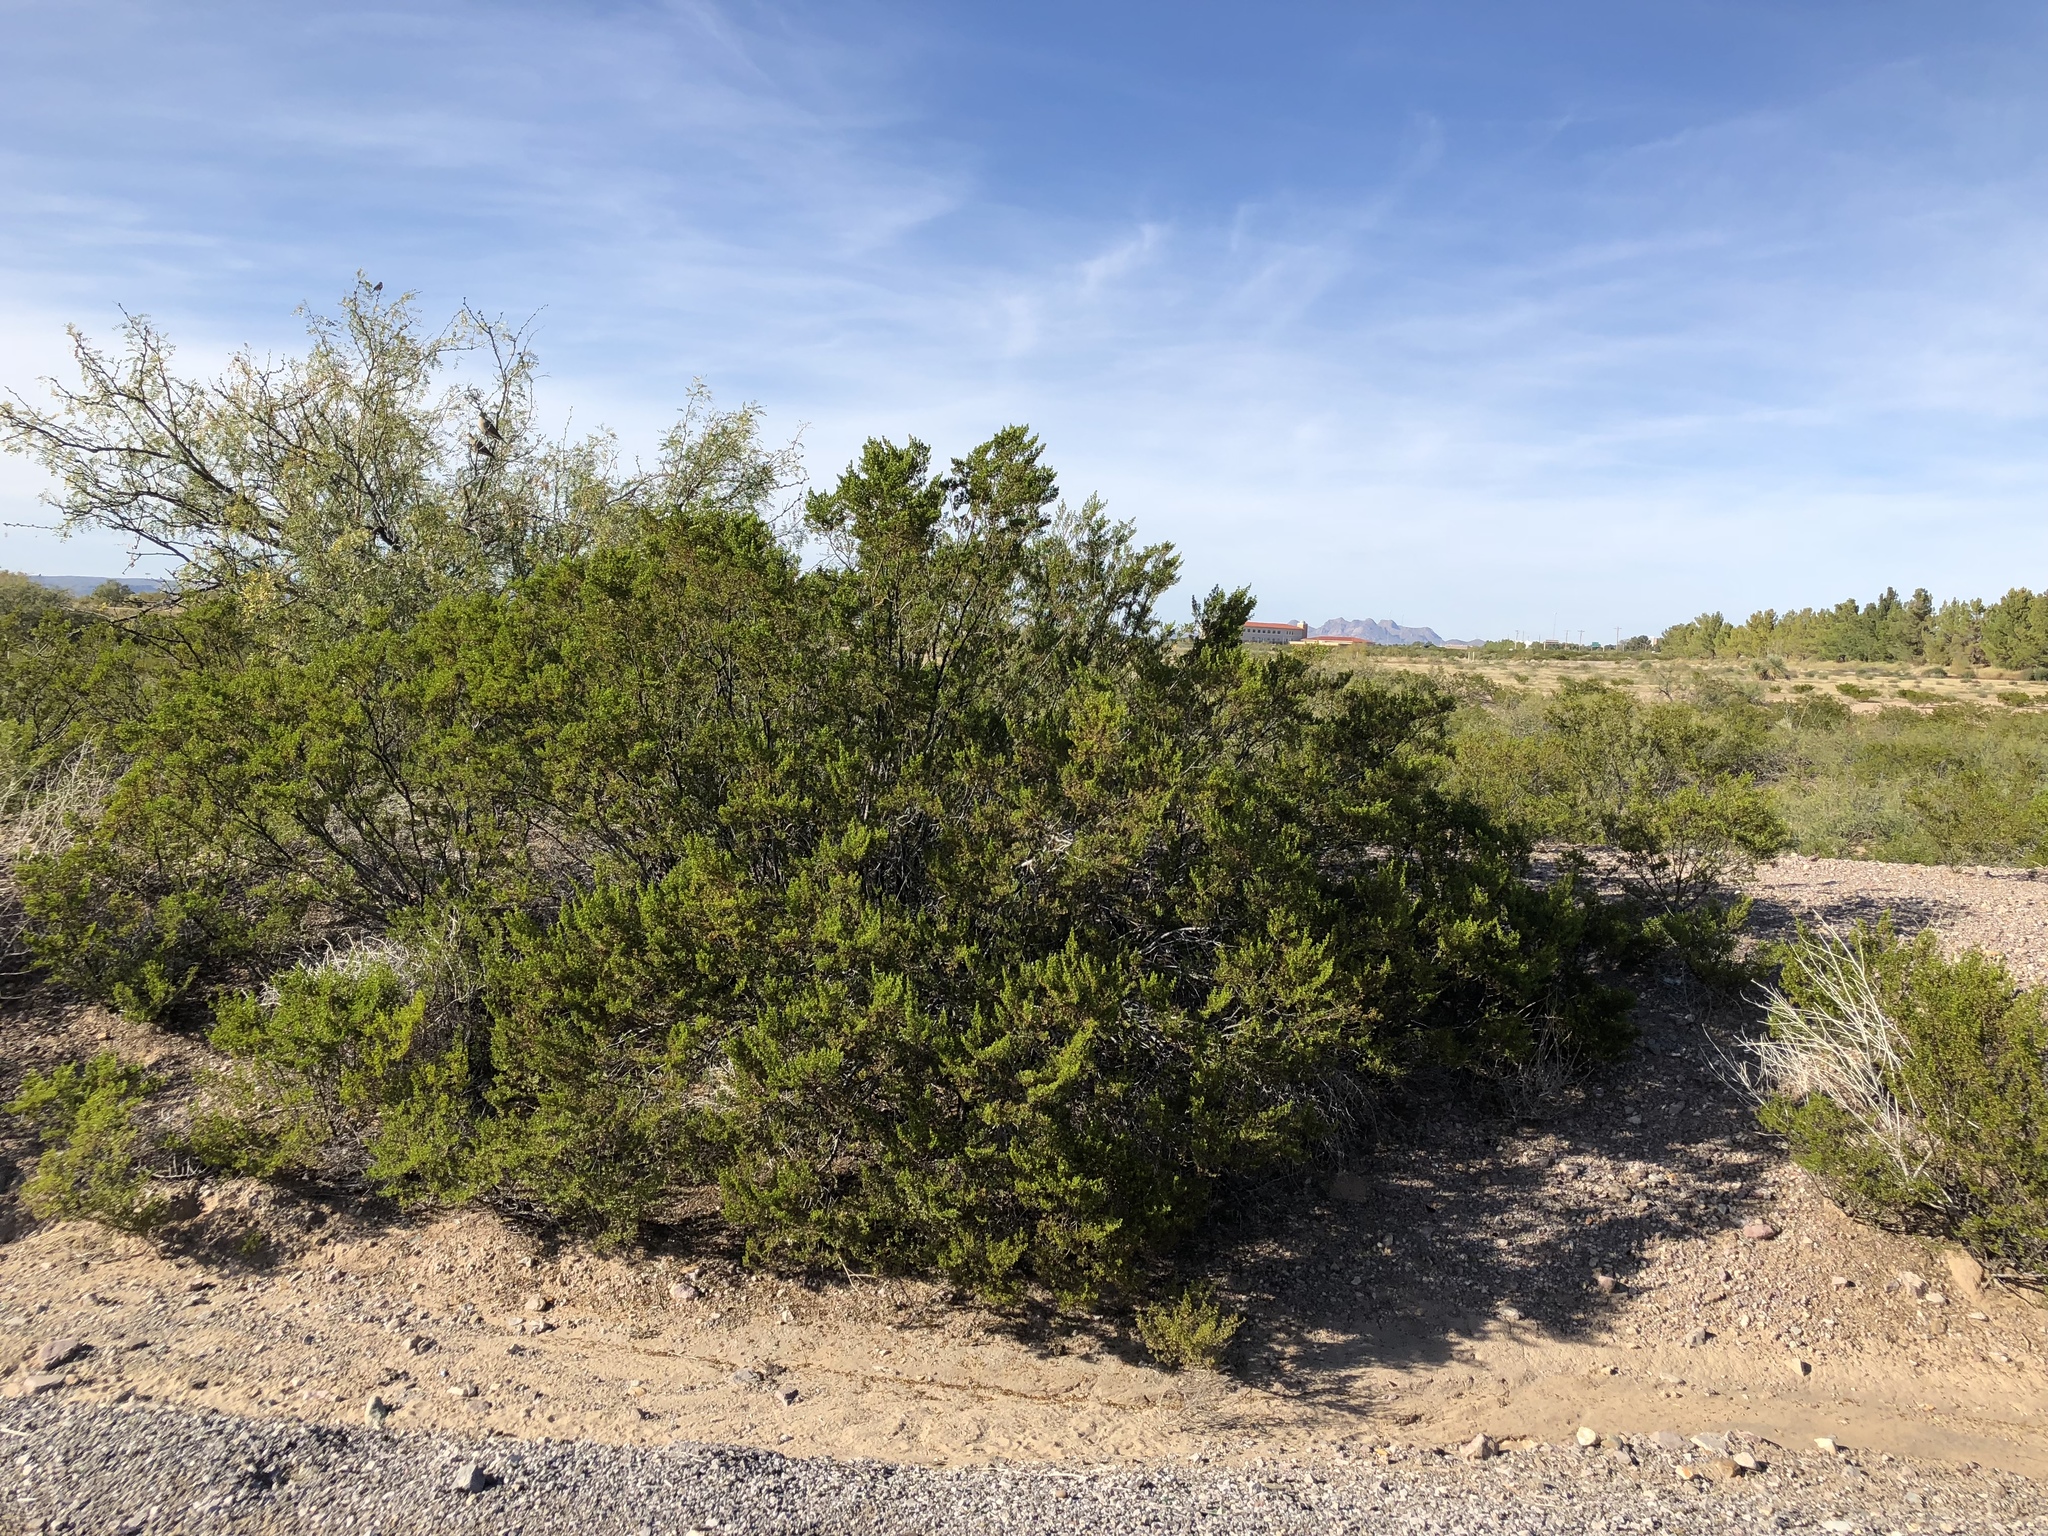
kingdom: Plantae
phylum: Tracheophyta
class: Magnoliopsida
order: Zygophyllales
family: Zygophyllaceae
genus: Larrea
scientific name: Larrea tridentata
